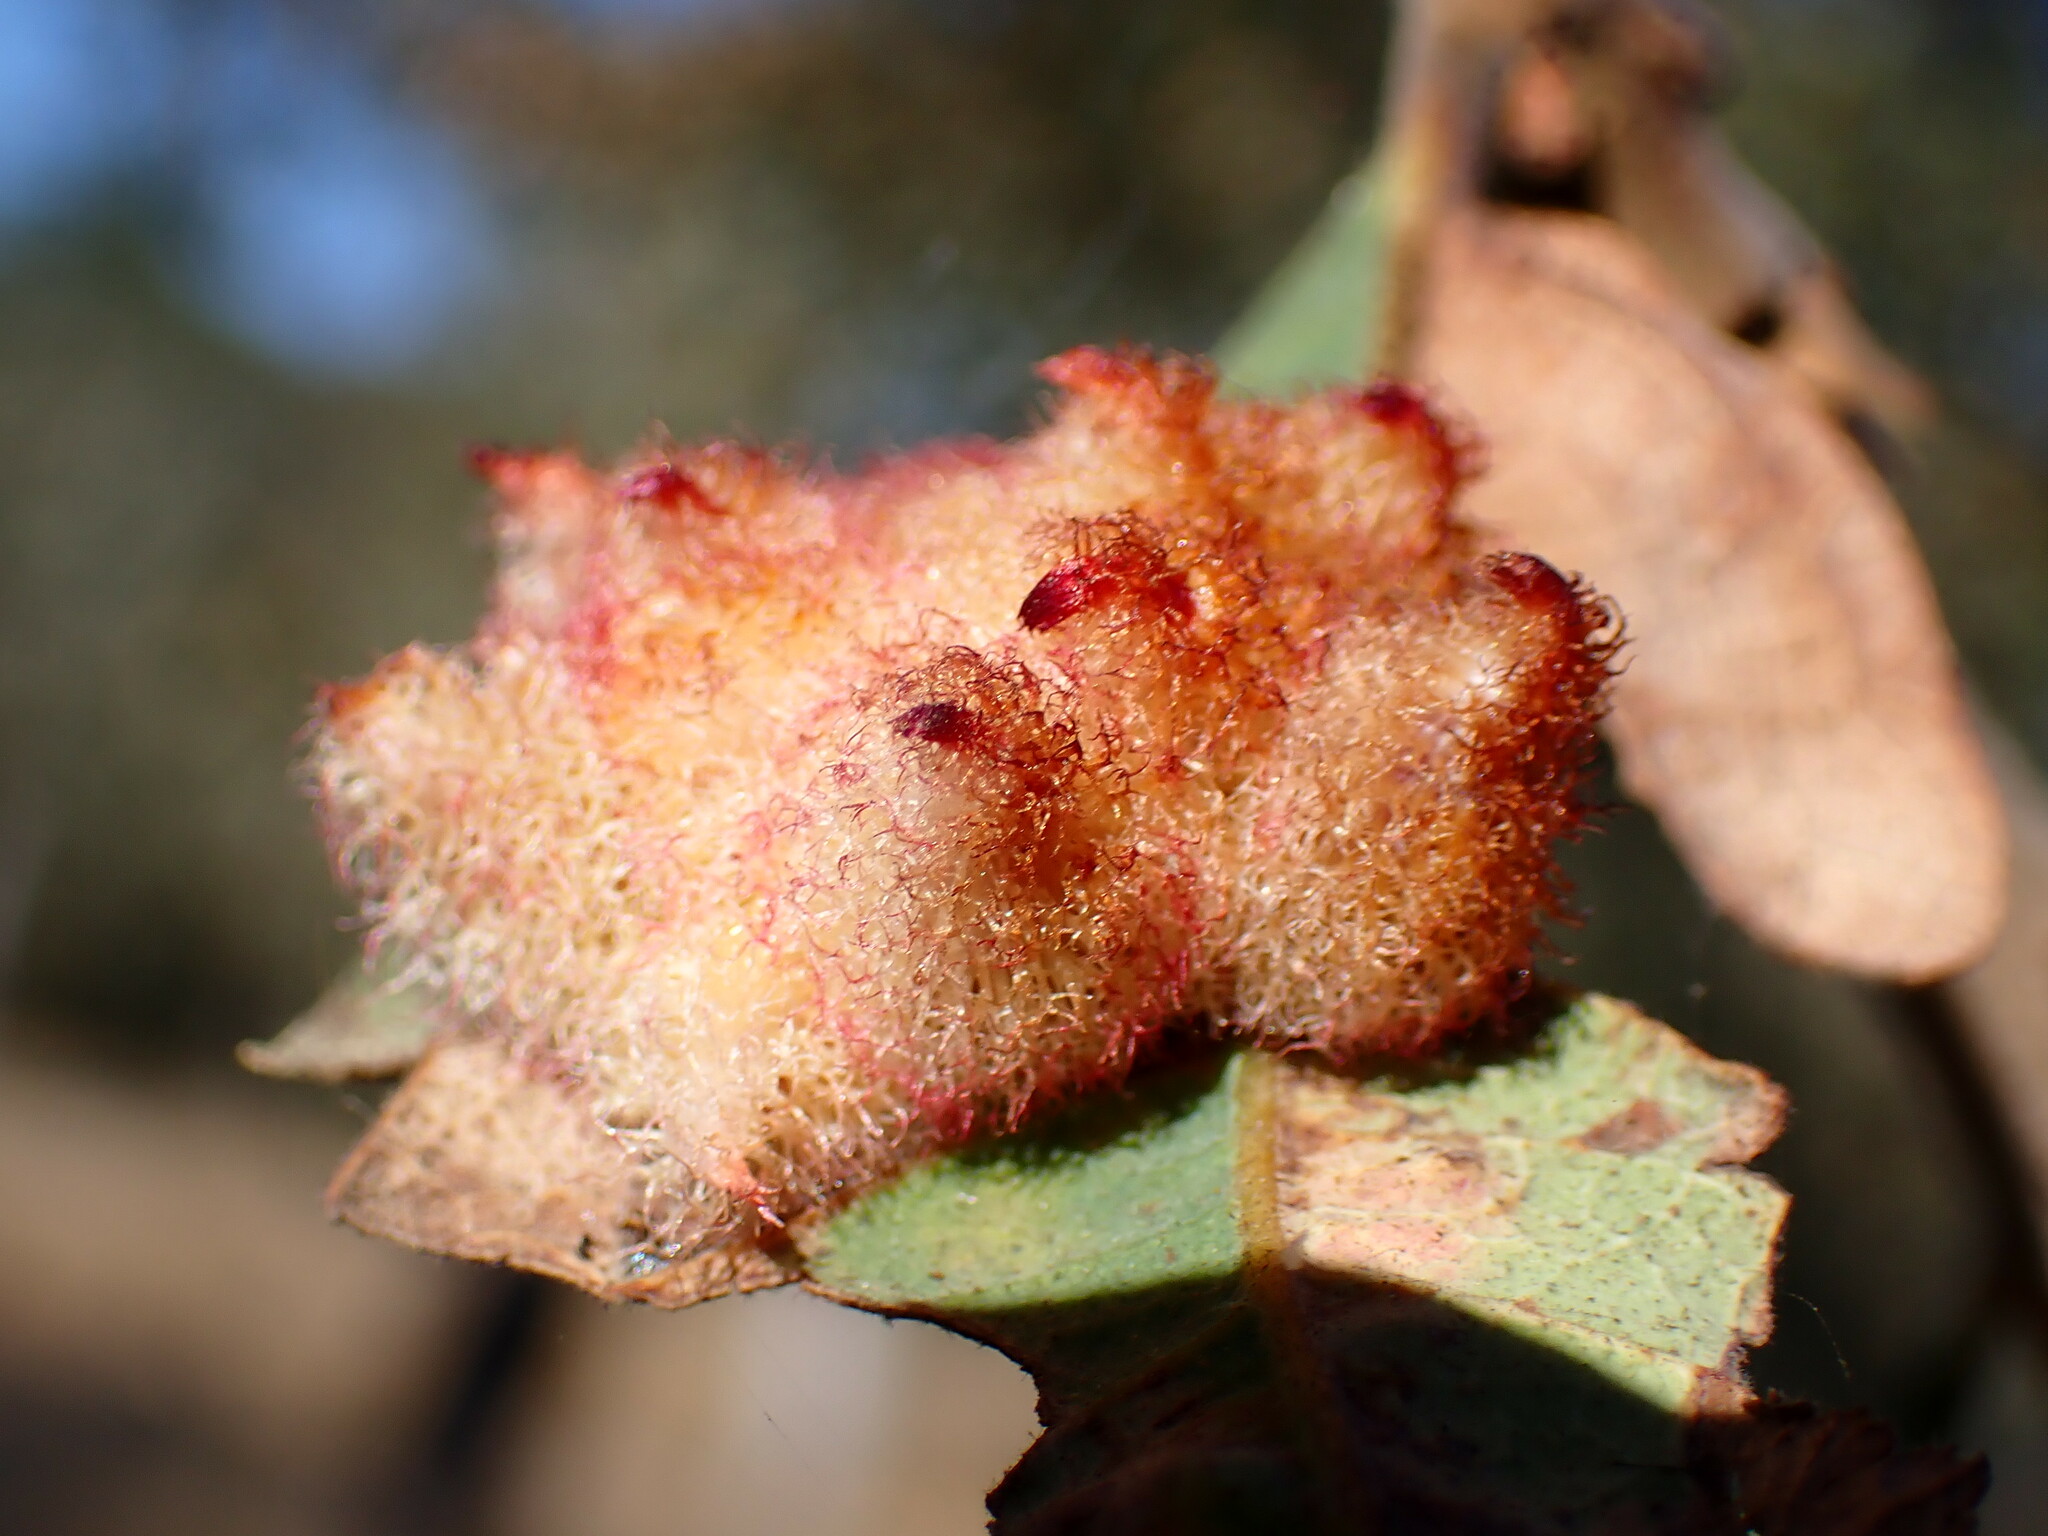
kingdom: Animalia
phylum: Arthropoda
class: Insecta
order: Hymenoptera
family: Cynipidae
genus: Andricus
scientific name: Andricus
